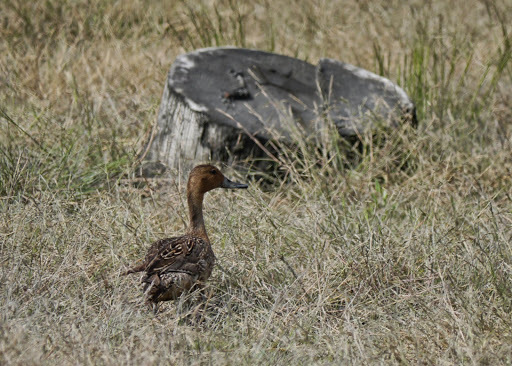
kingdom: Animalia
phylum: Chordata
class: Aves
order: Anseriformes
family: Anatidae
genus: Anas
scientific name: Anas acuta
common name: Northern pintail
